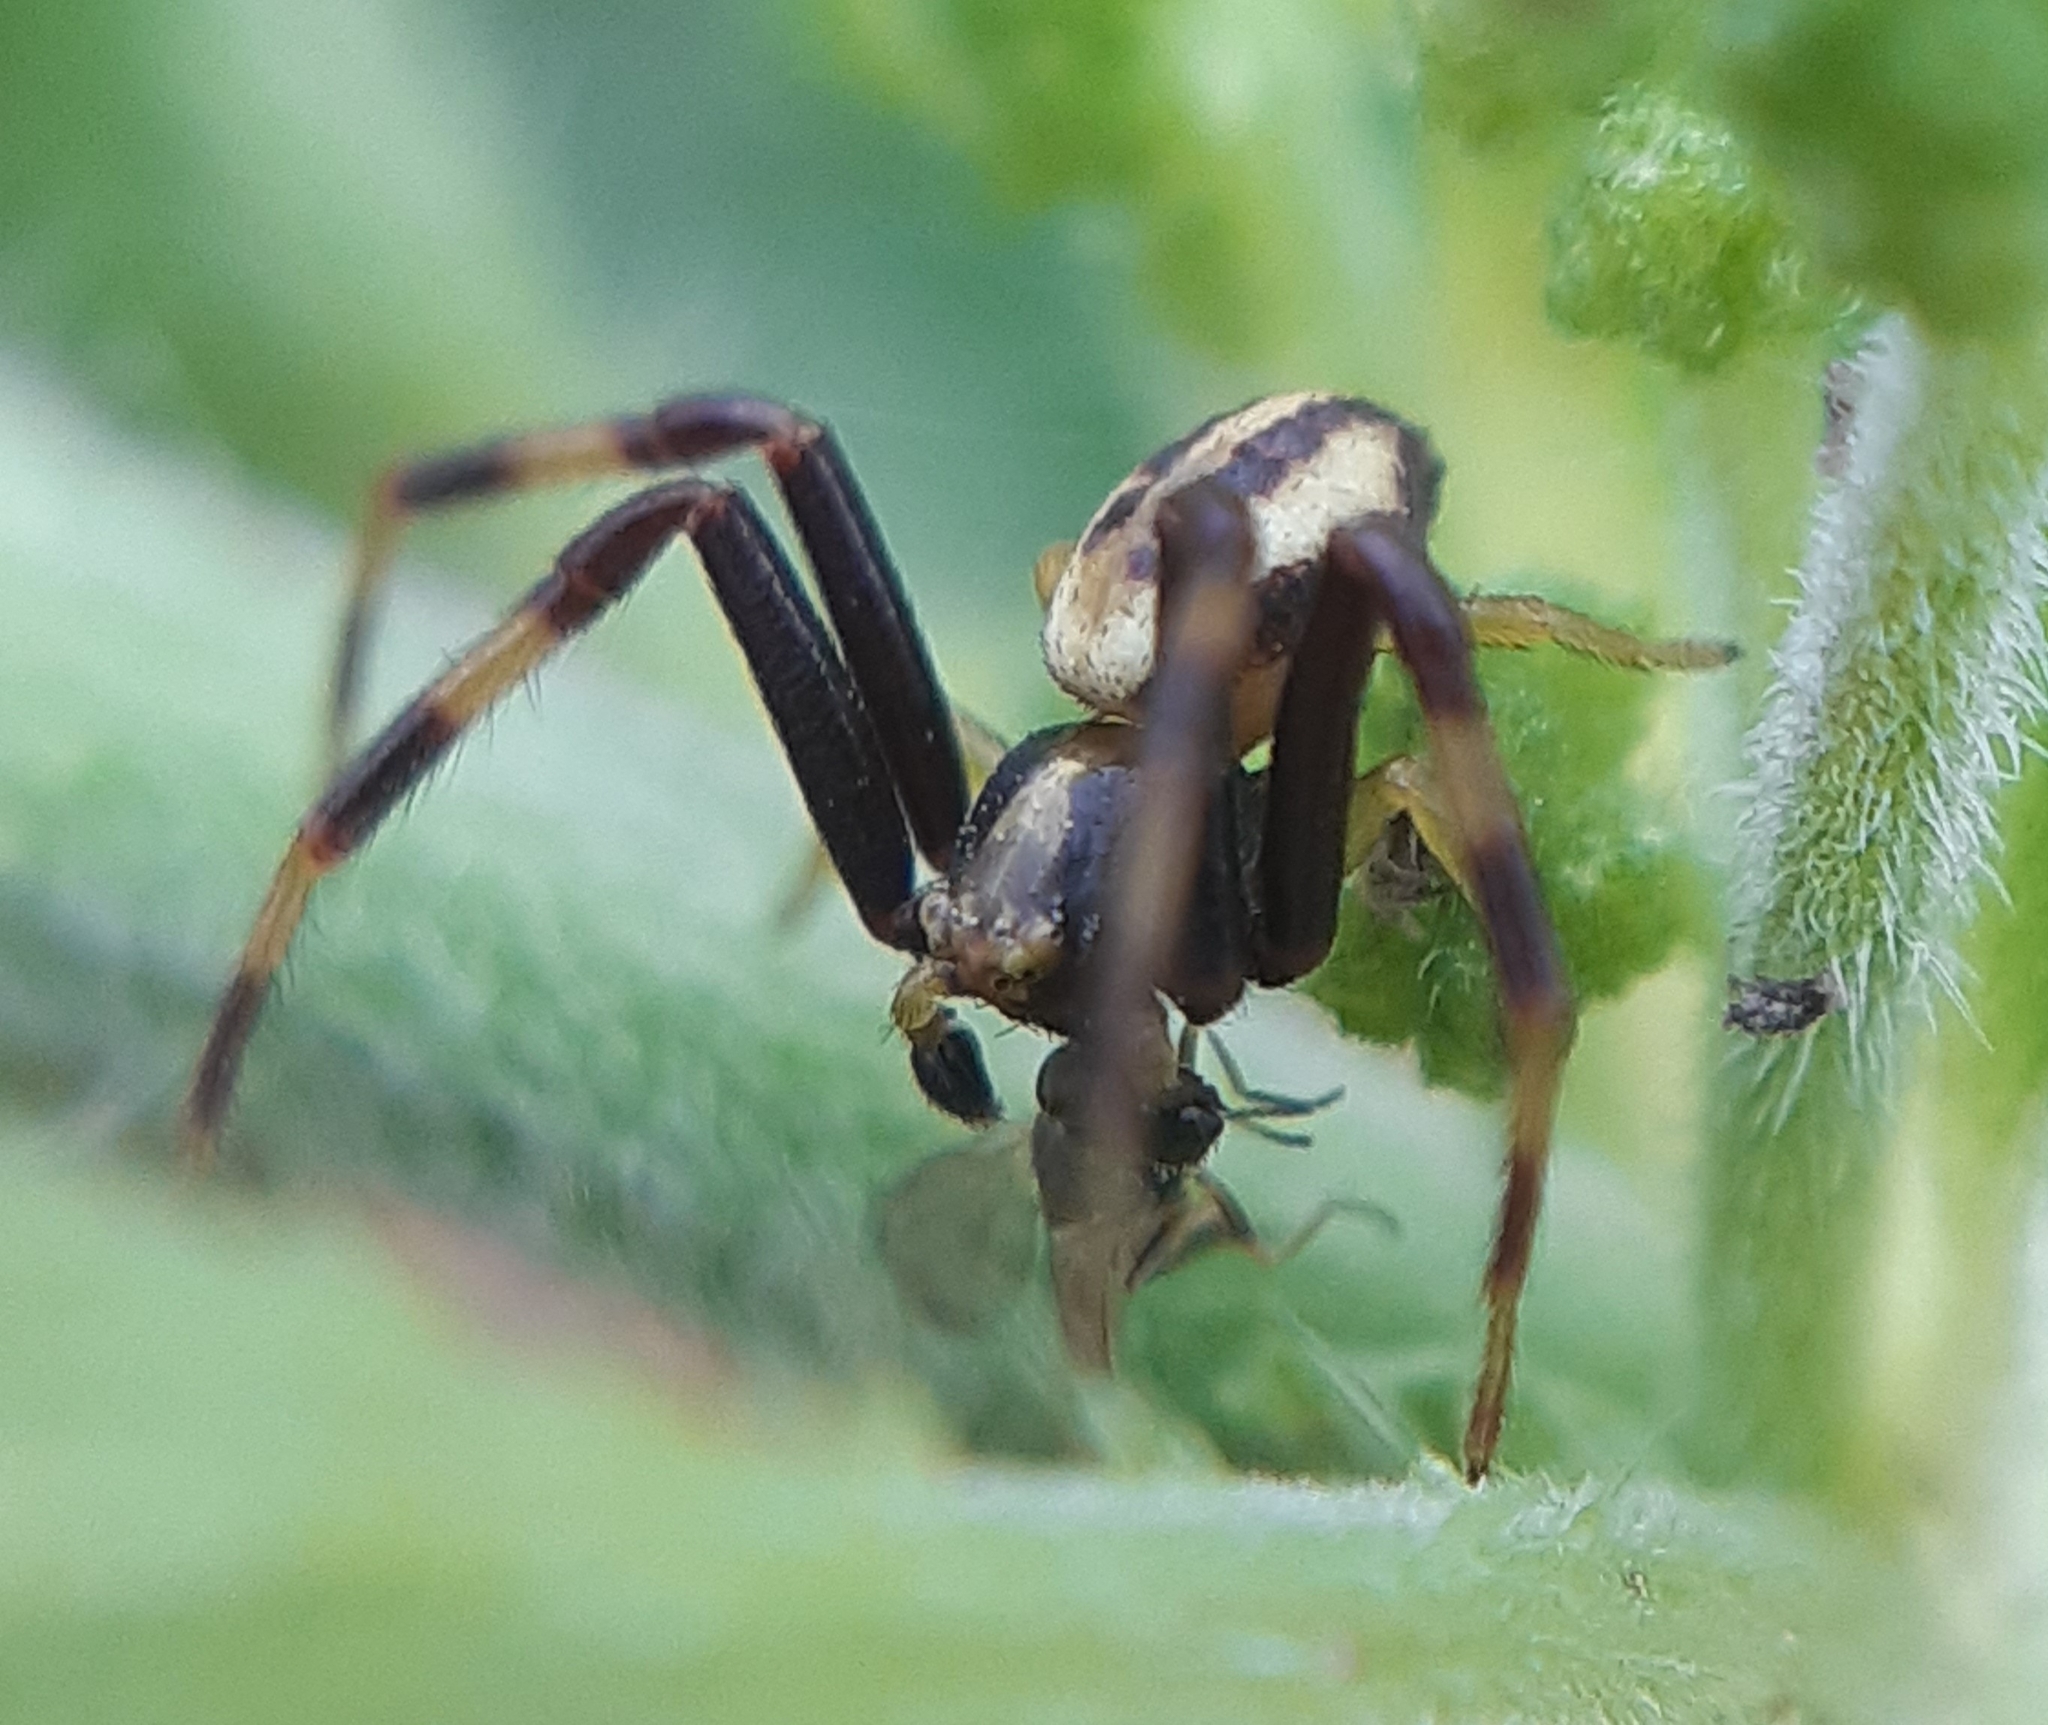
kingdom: Animalia
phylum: Arthropoda
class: Arachnida
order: Araneae
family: Thomisidae
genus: Misumena
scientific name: Misumena vatia
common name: Goldenrod crab spider
